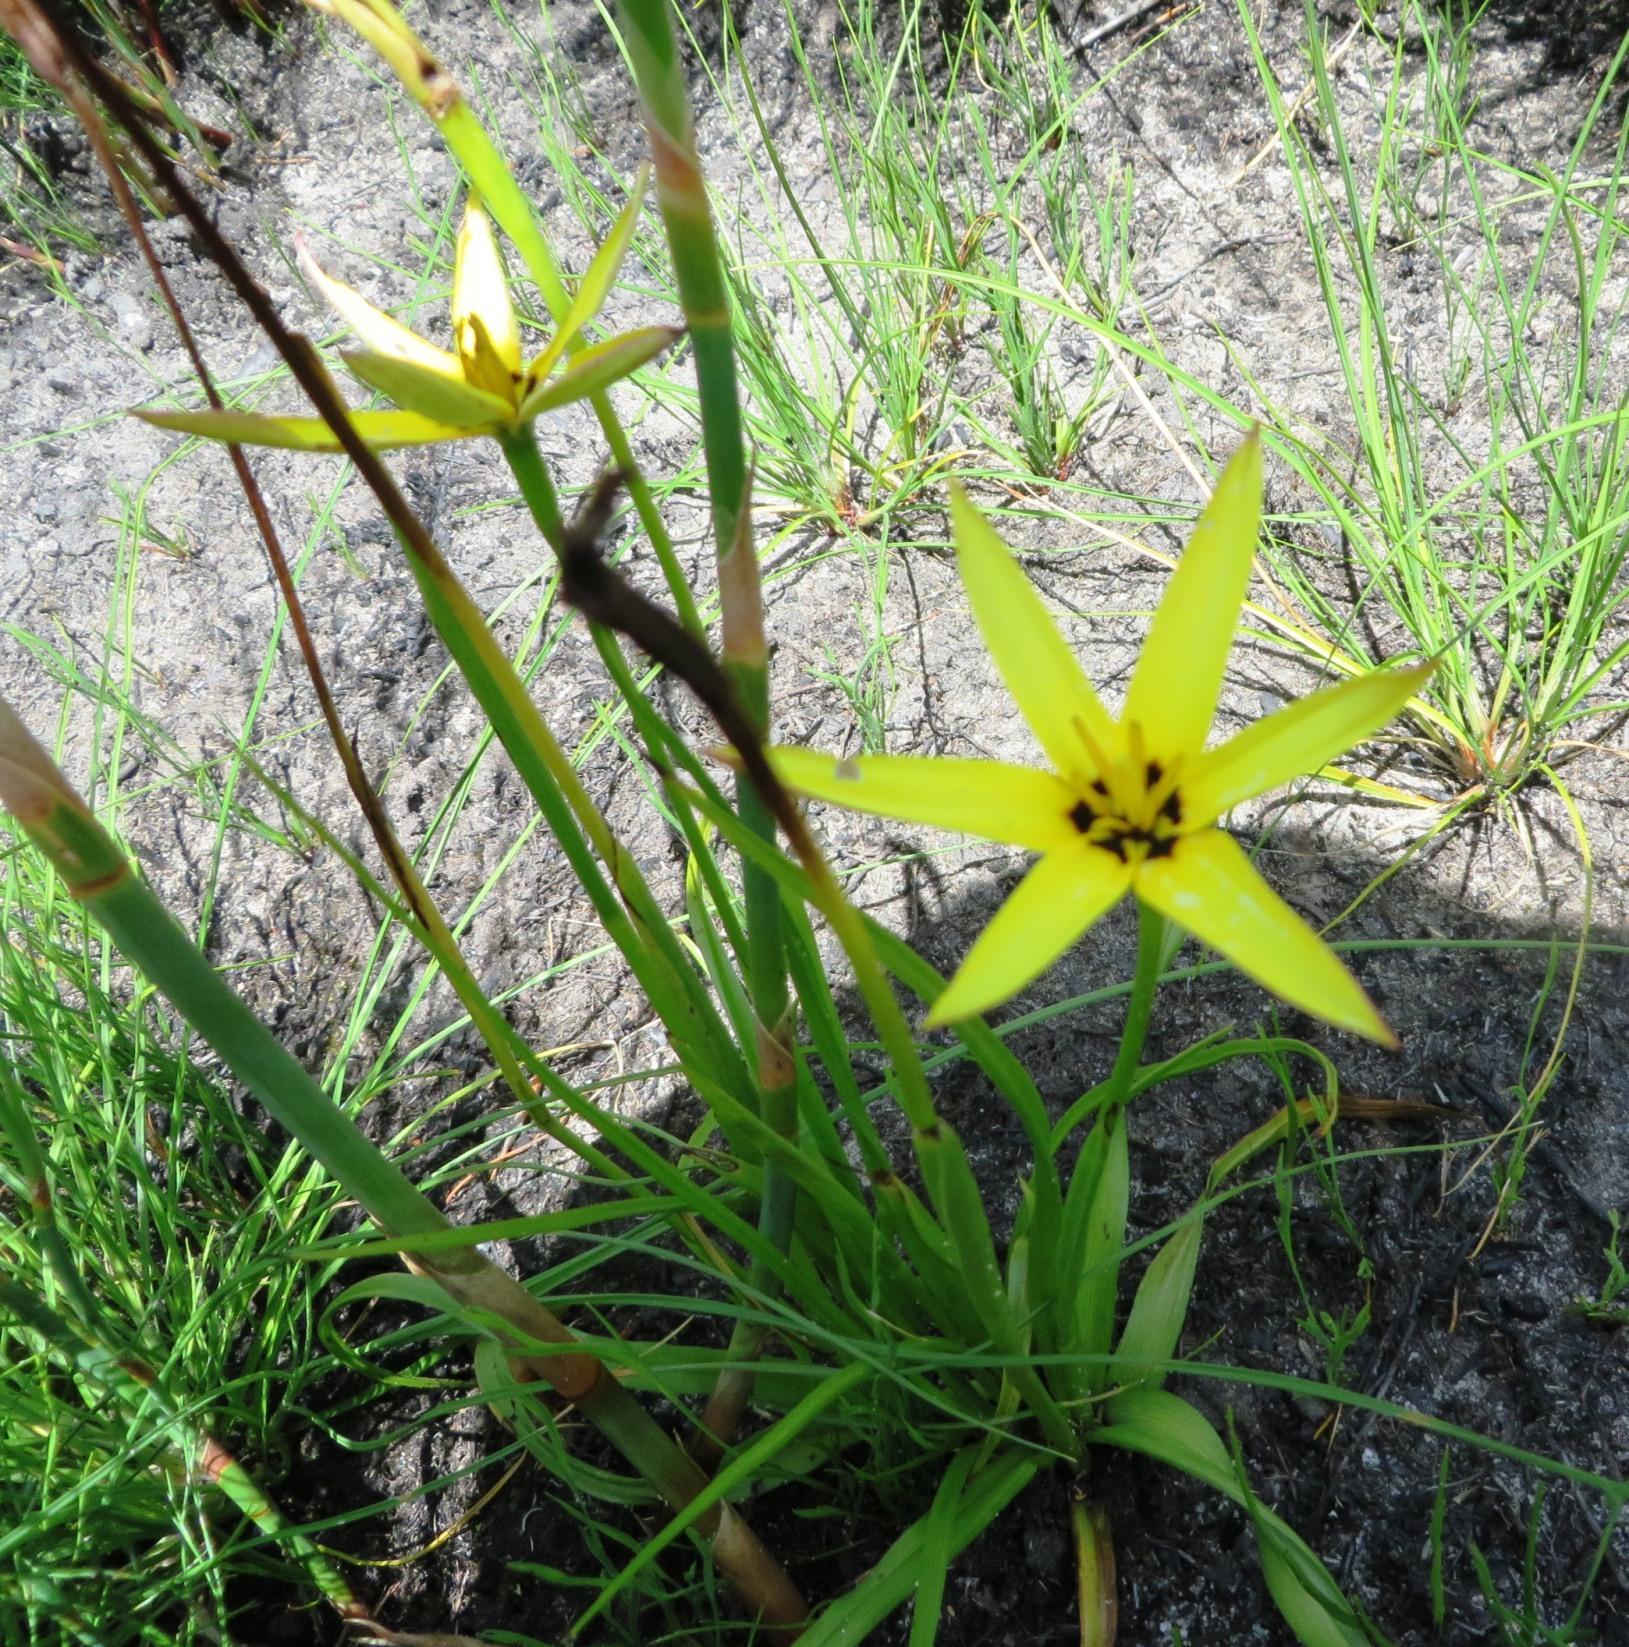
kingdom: Plantae
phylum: Tracheophyta
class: Liliopsida
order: Asparagales
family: Hypoxidaceae
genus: Pauridia
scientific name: Pauridia capensis
